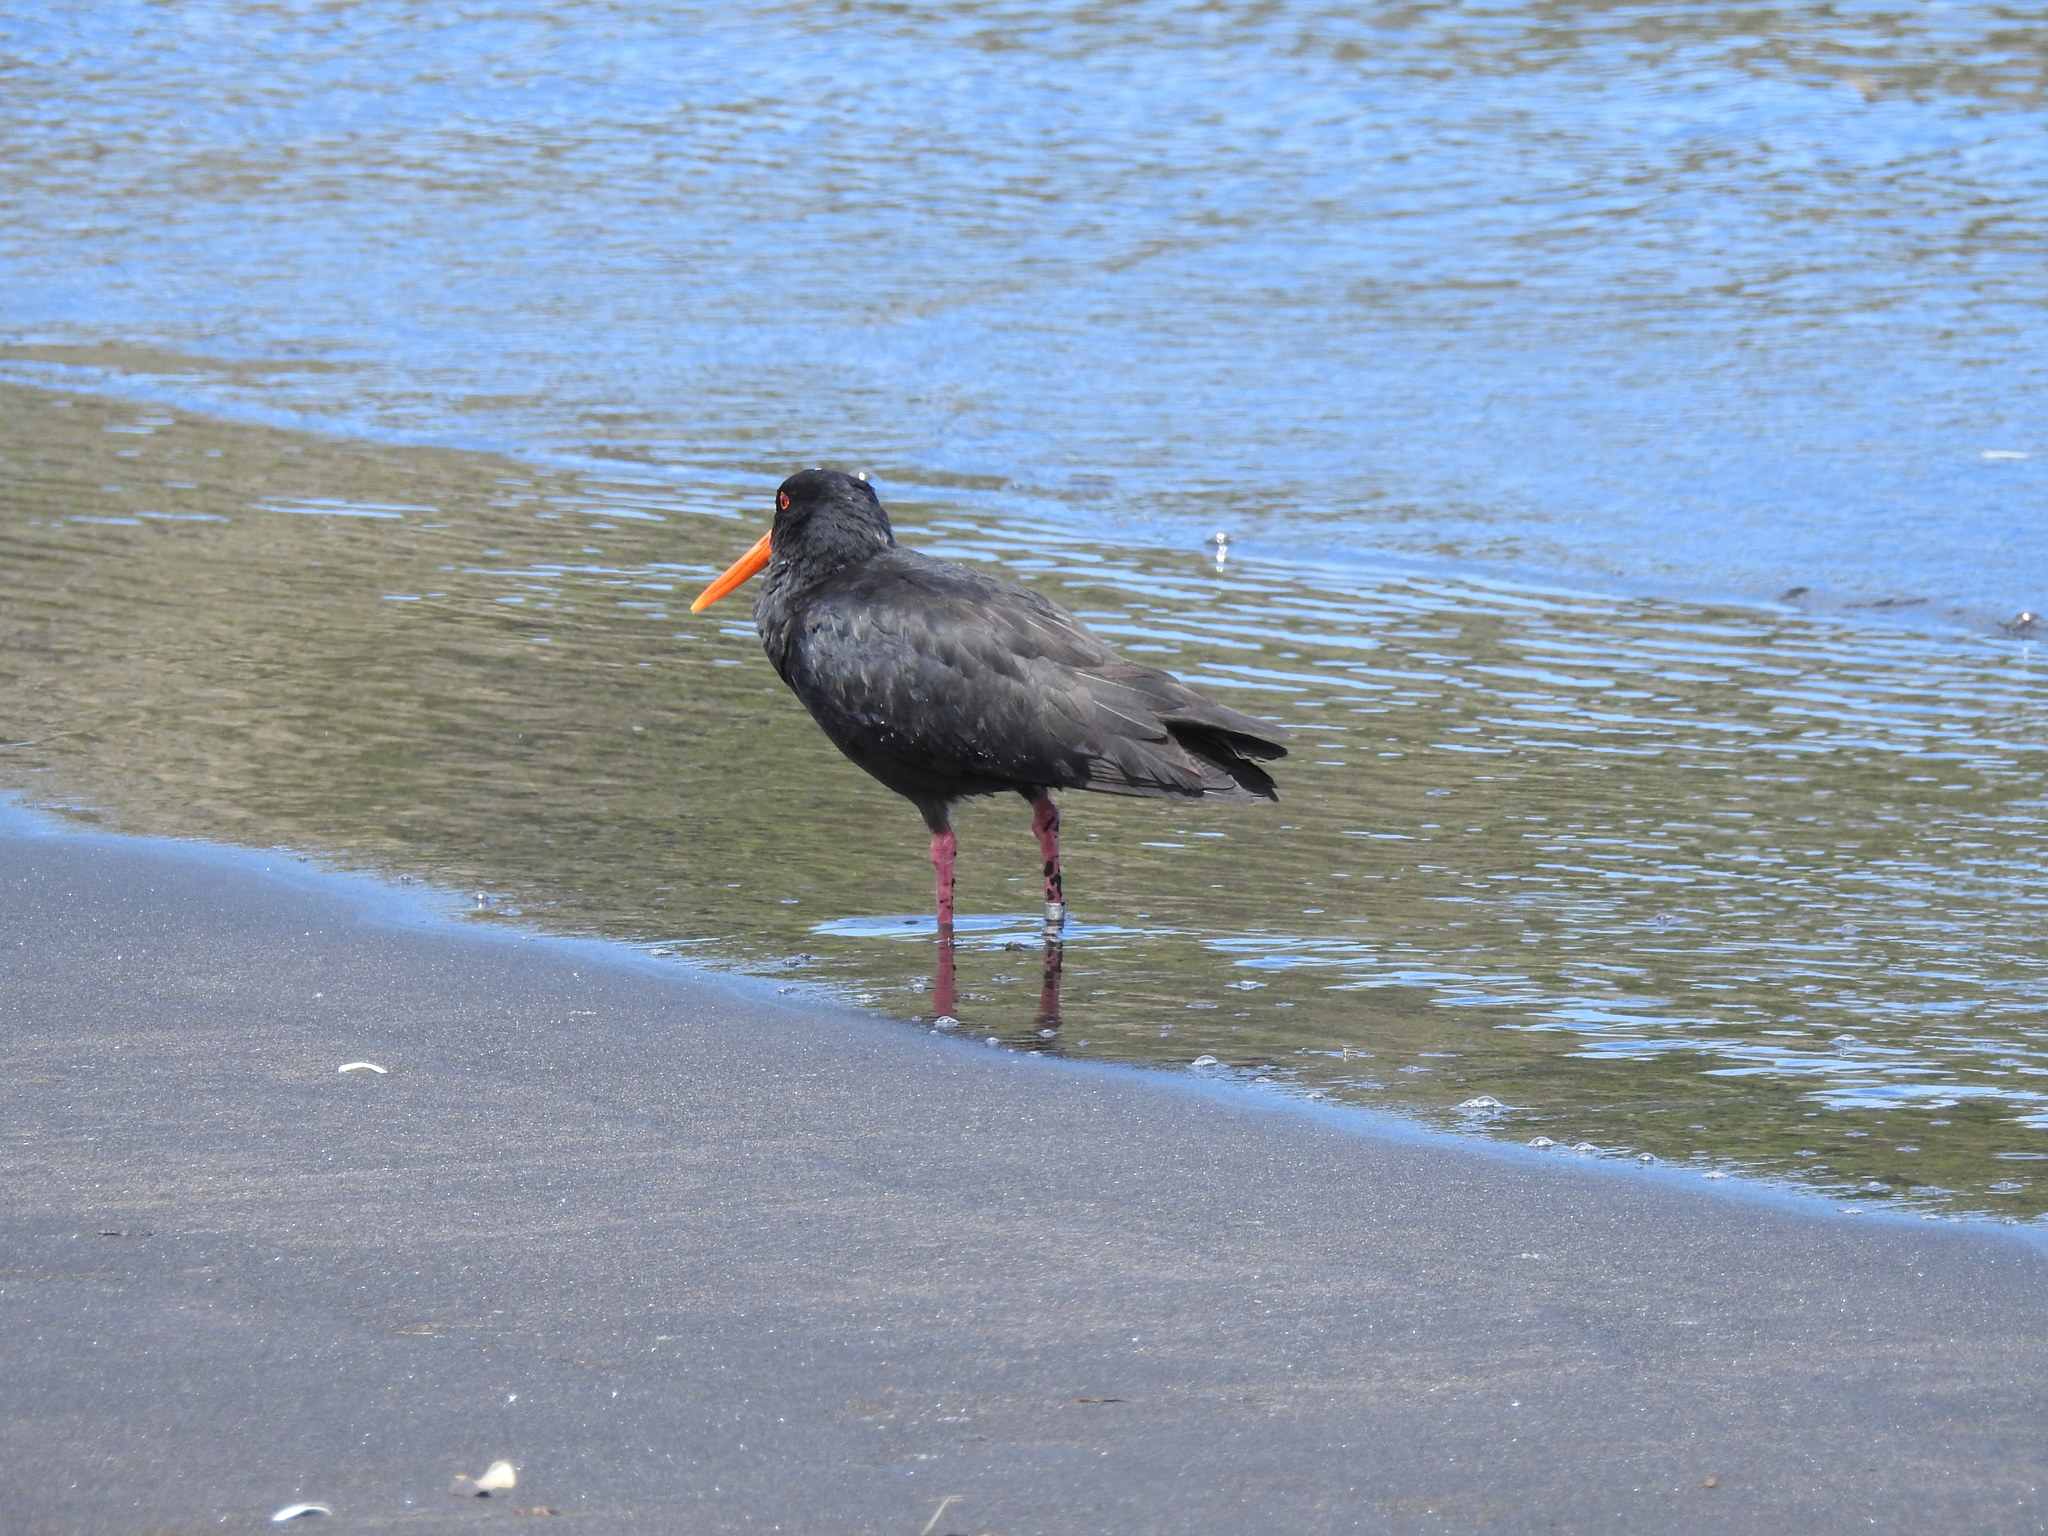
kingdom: Animalia
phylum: Chordata
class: Aves
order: Charadriiformes
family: Haematopodidae
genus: Haematopus
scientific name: Haematopus unicolor
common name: Variable oystercatcher
